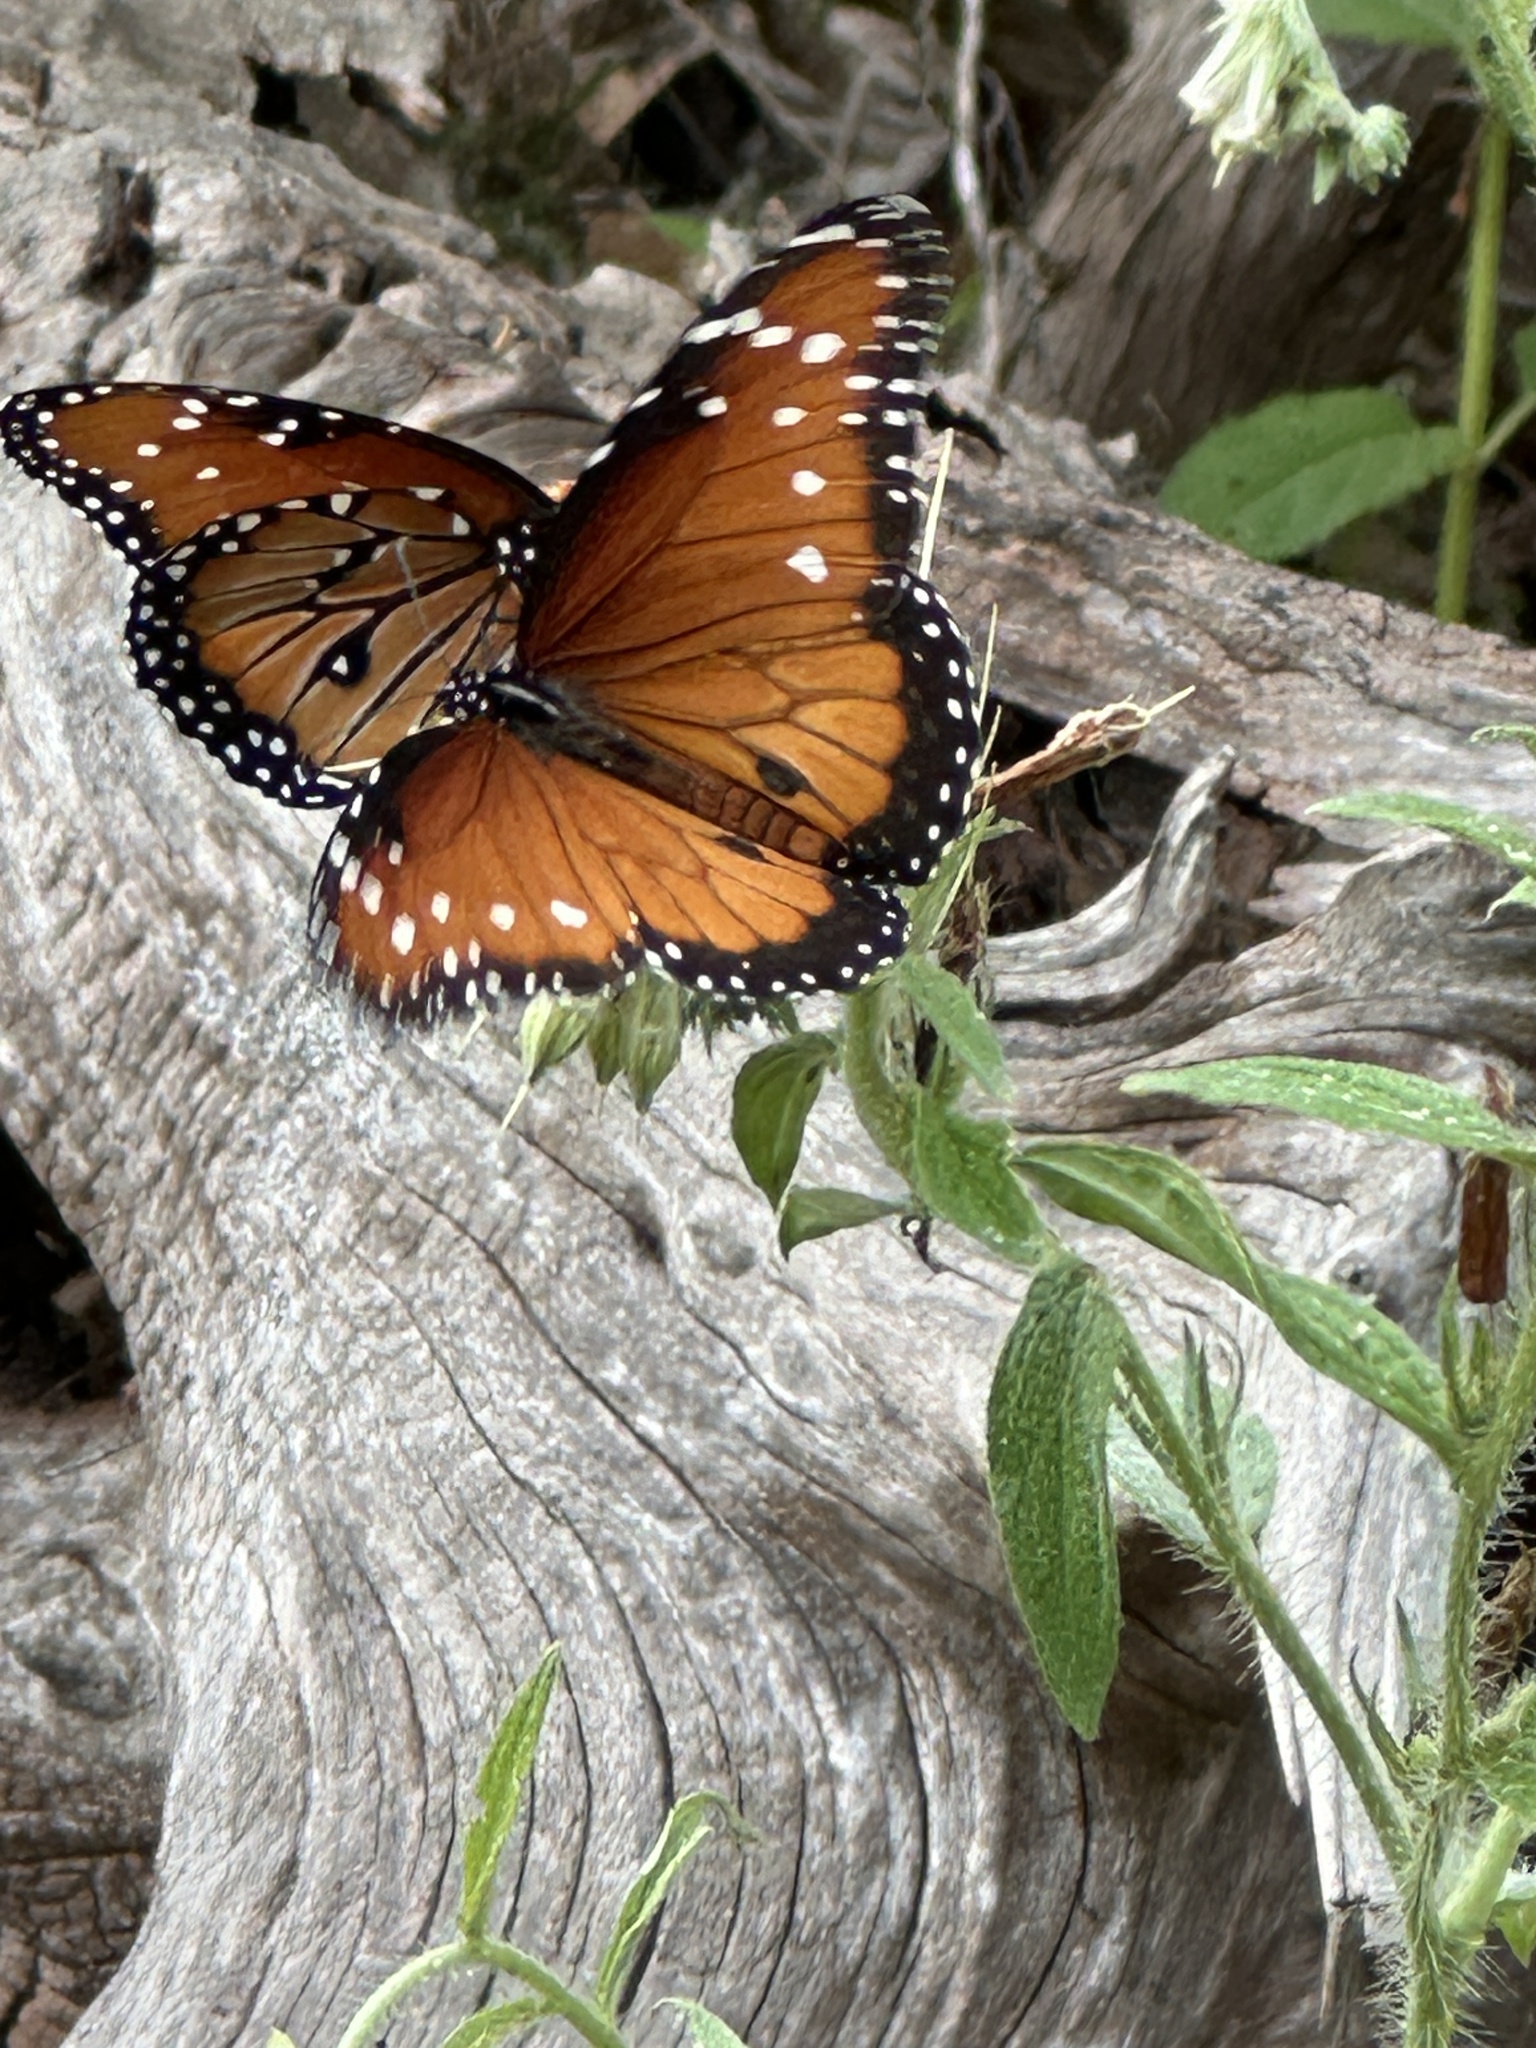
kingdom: Animalia
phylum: Arthropoda
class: Insecta
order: Lepidoptera
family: Nymphalidae
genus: Danaus
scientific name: Danaus gilippus
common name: Queen
